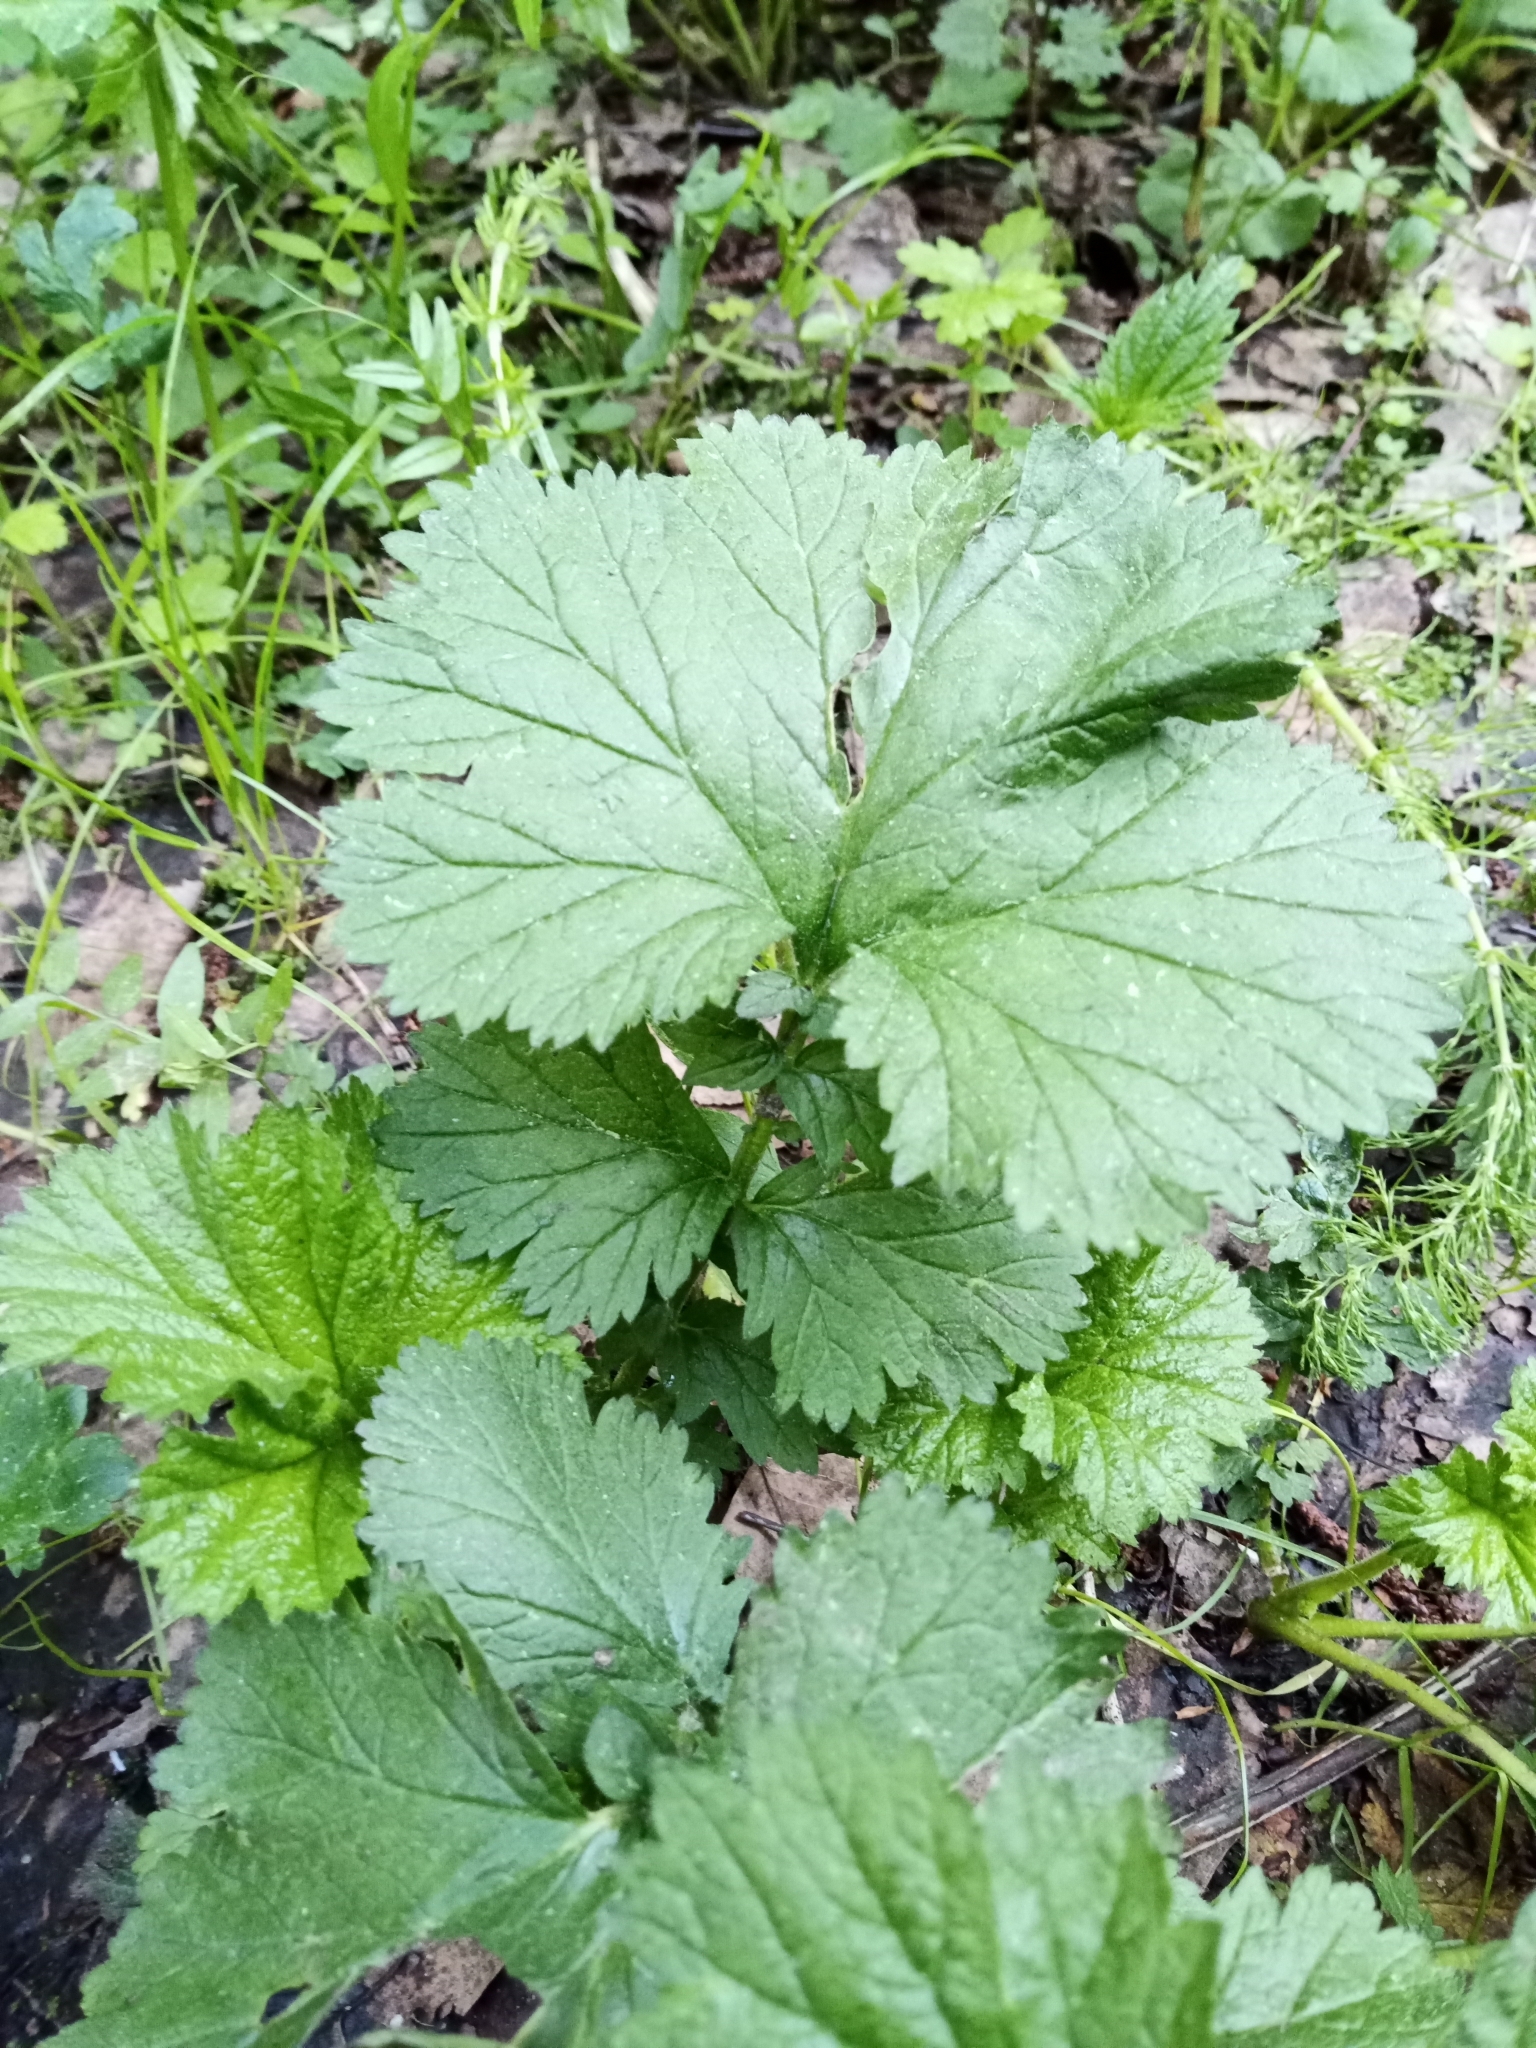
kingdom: Plantae
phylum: Tracheophyta
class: Magnoliopsida
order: Rosales
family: Rosaceae
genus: Geum
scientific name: Geum macrophyllum
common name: Large-leaved avens
